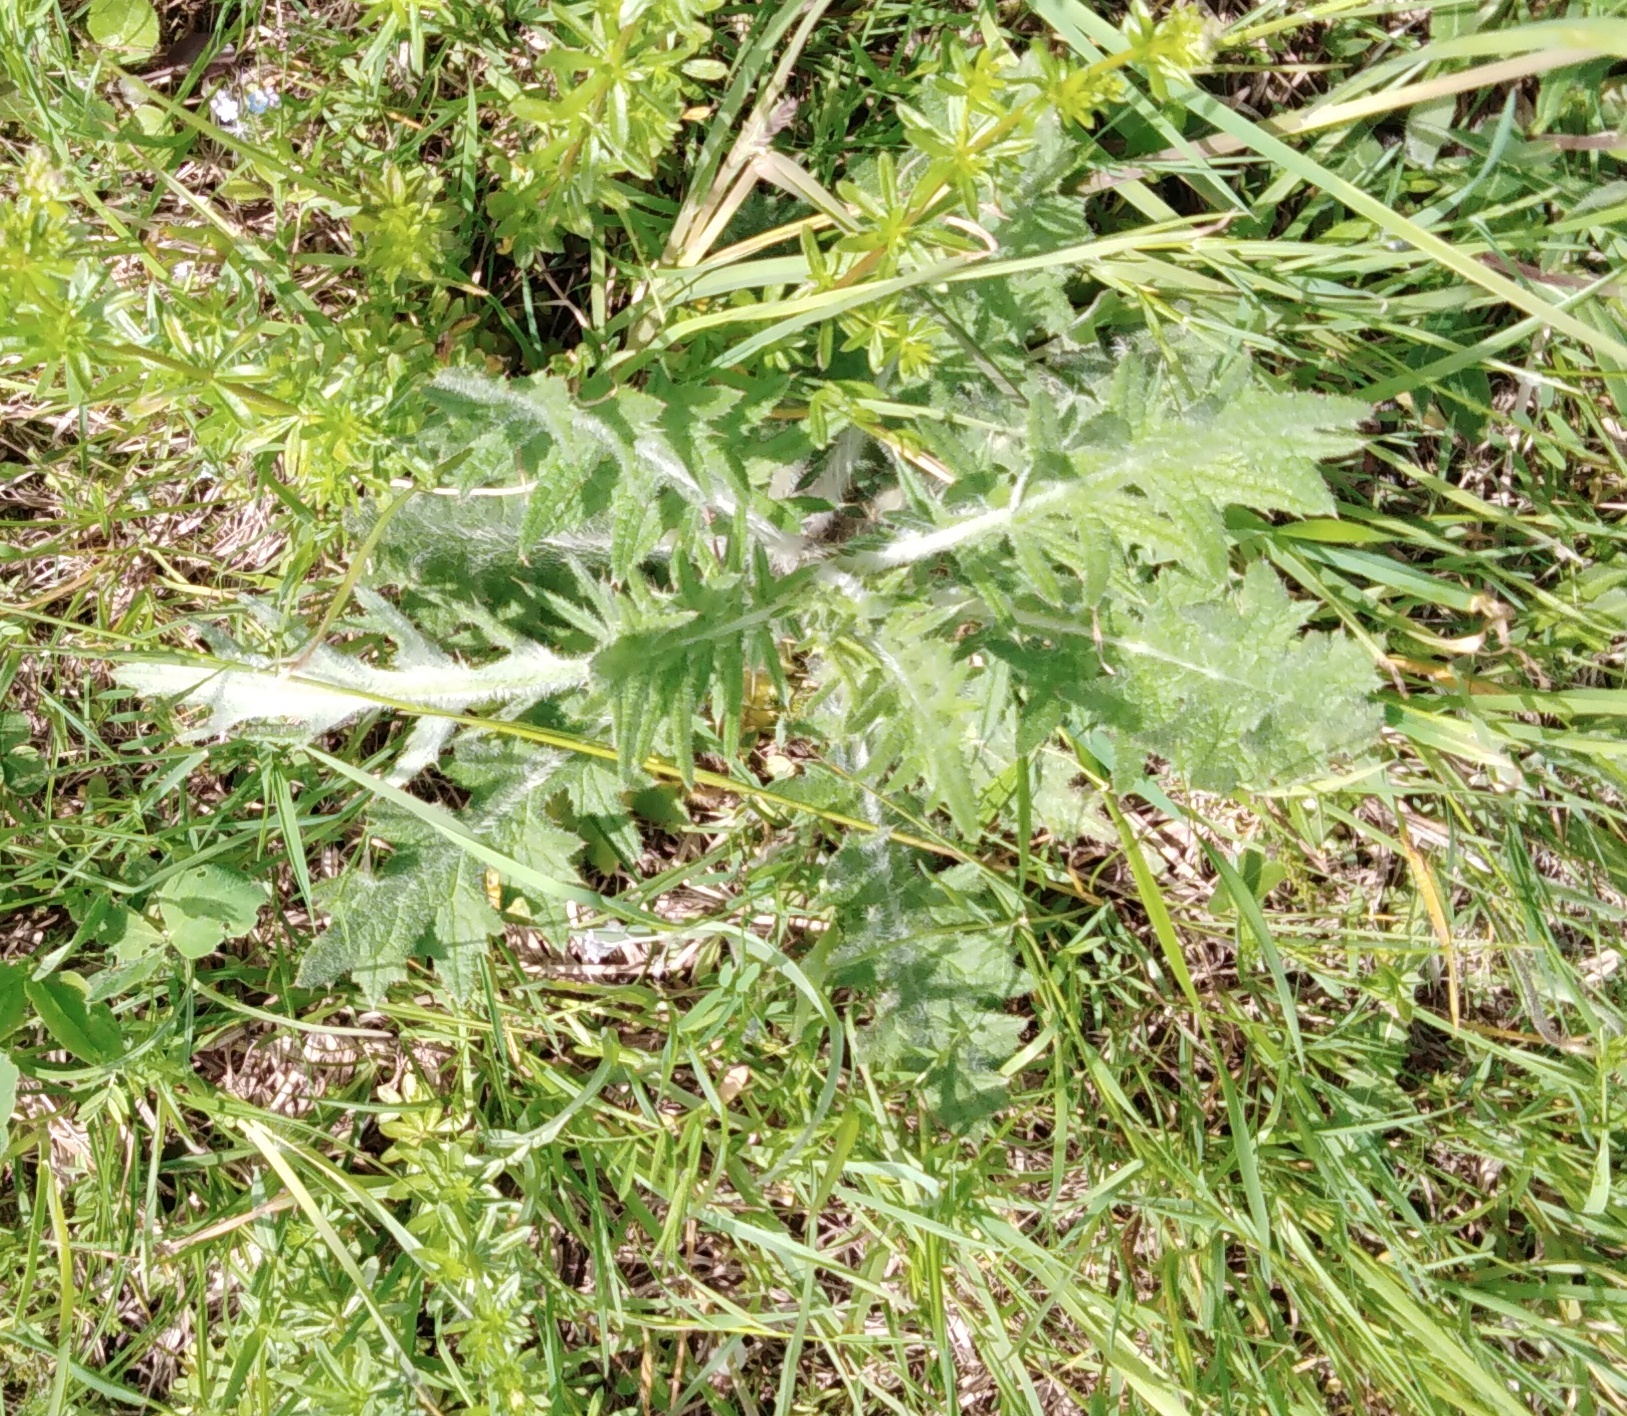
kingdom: Plantae
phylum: Tracheophyta
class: Magnoliopsida
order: Asterales
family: Asteraceae
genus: Cirsium
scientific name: Cirsium vulgare
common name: Bull thistle
